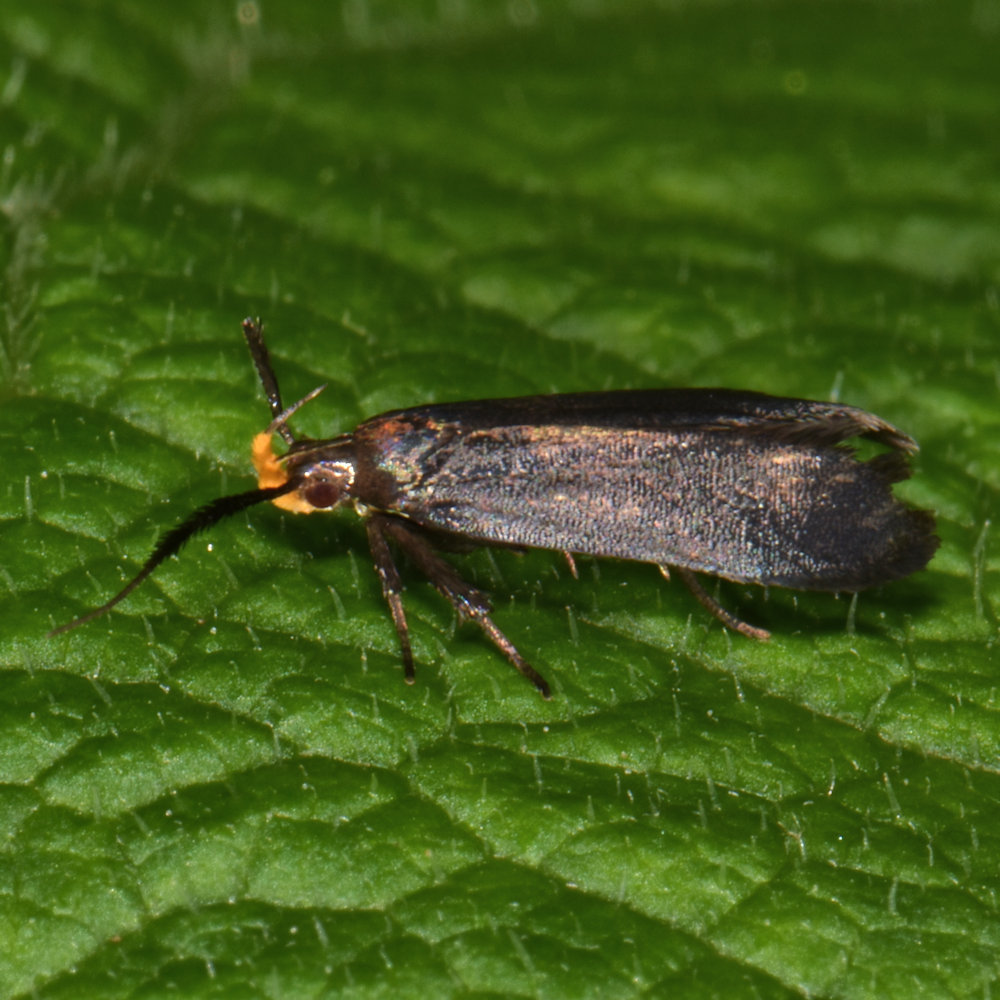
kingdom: Animalia
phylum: Arthropoda
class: Insecta
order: Lepidoptera
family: Gelechiidae
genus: Dichomeris
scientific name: Dichomeris nonstrigella
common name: Little devil moth
